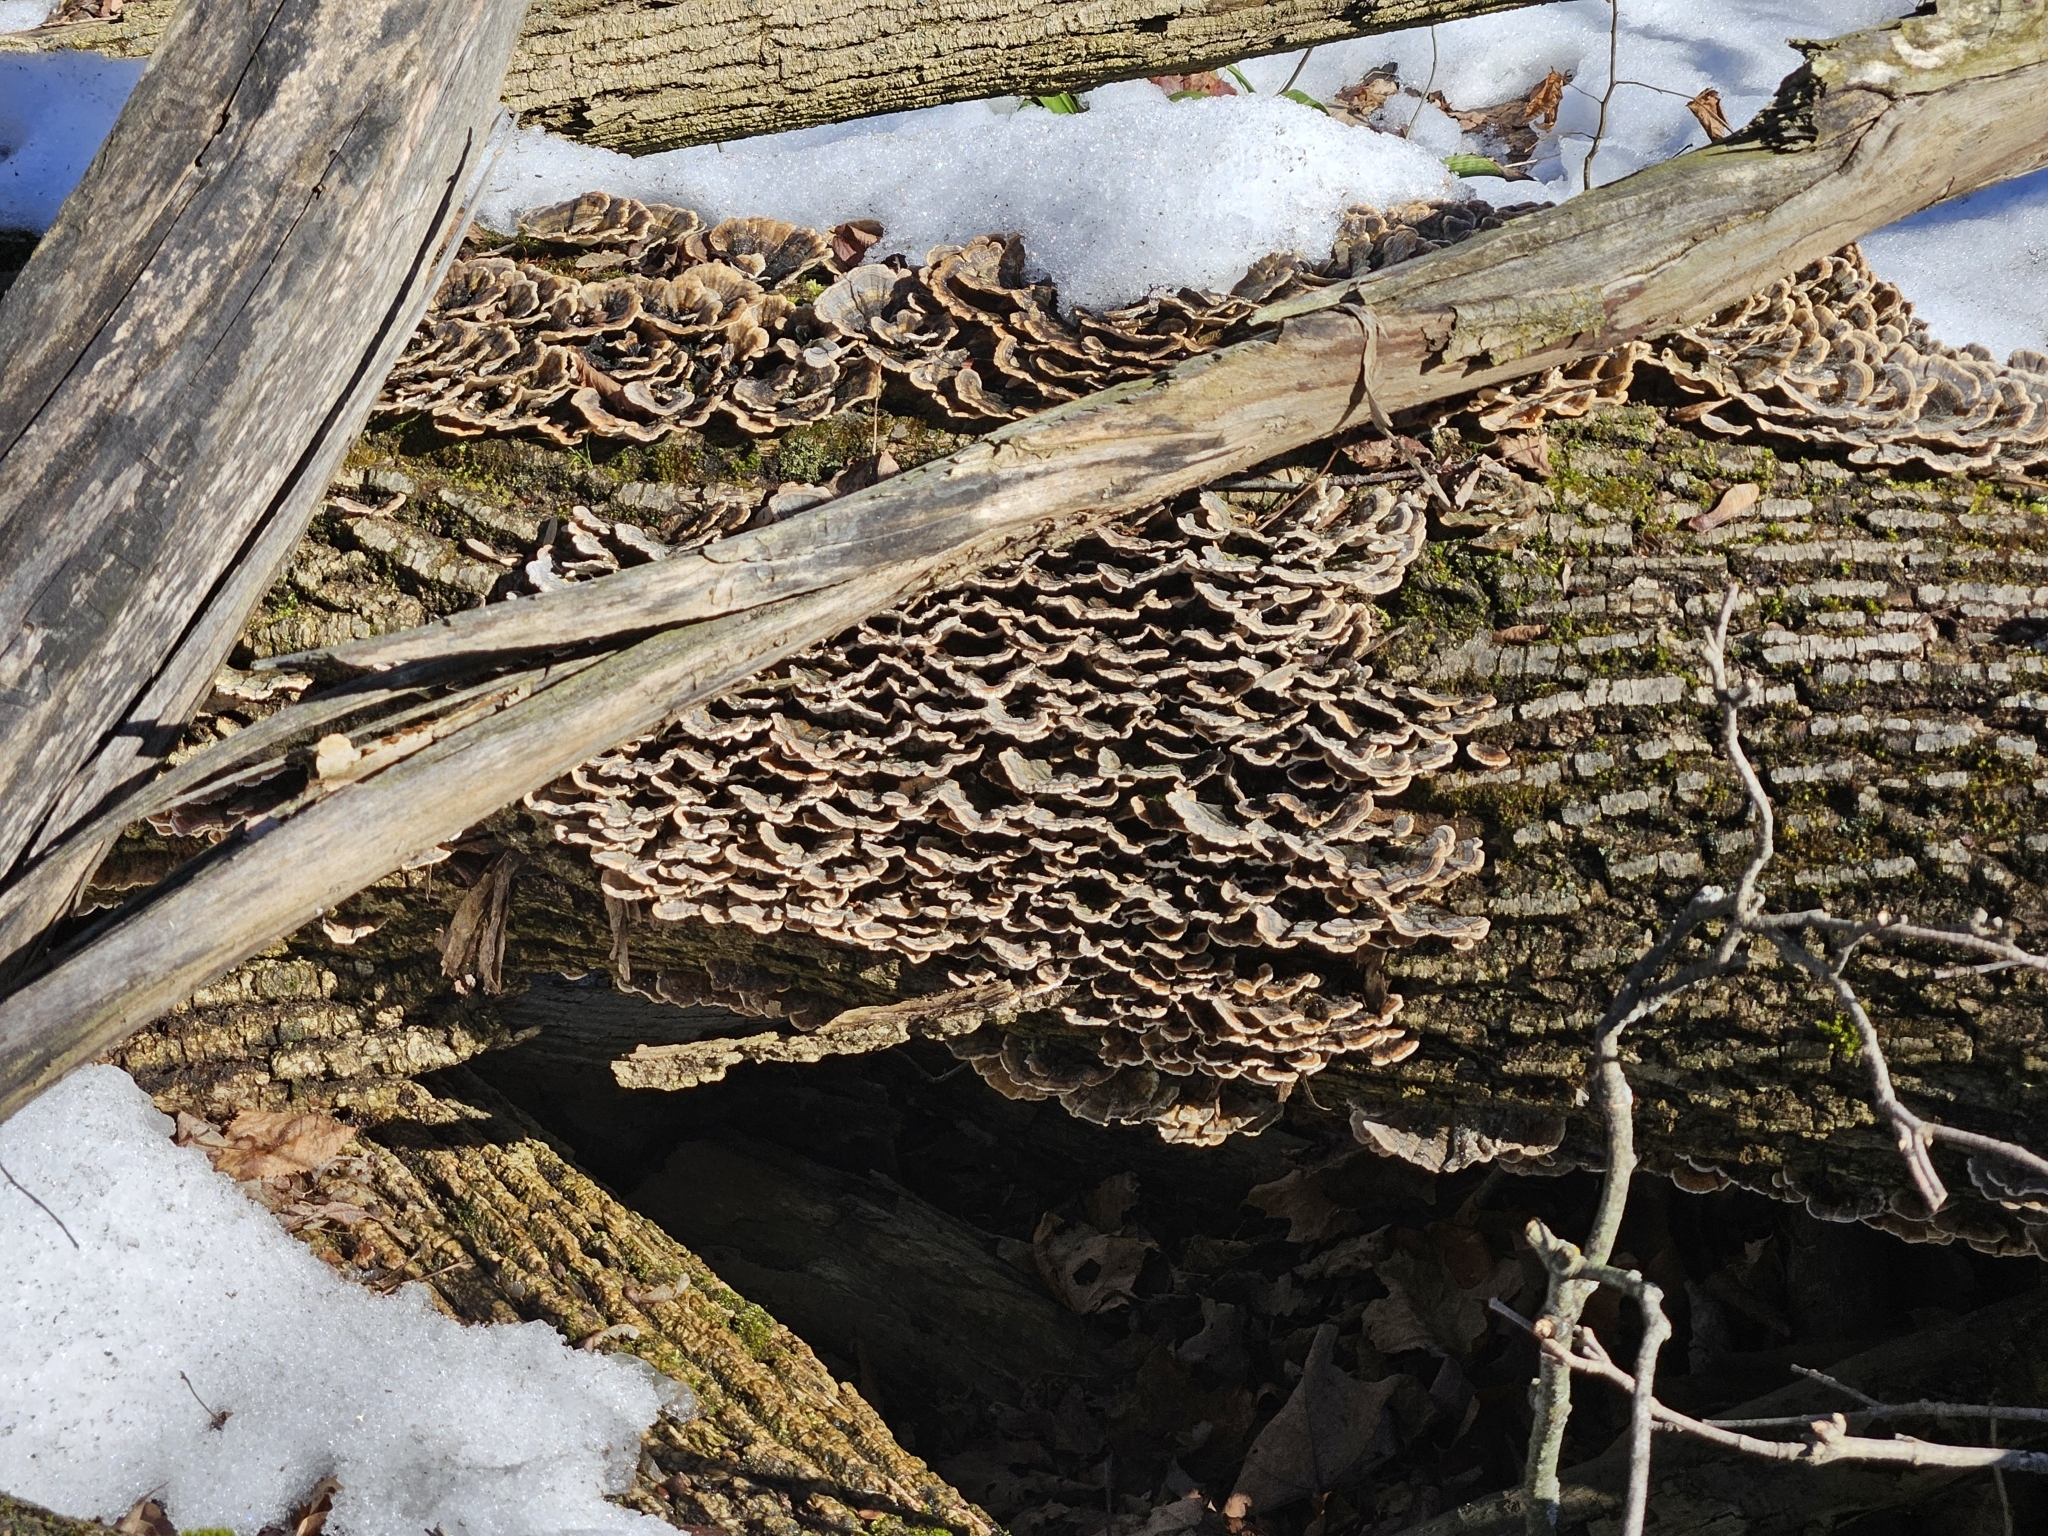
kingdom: Fungi
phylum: Basidiomycota
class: Agaricomycetes
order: Polyporales
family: Polyporaceae
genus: Trametes
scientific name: Trametes versicolor
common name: Turkeytail
